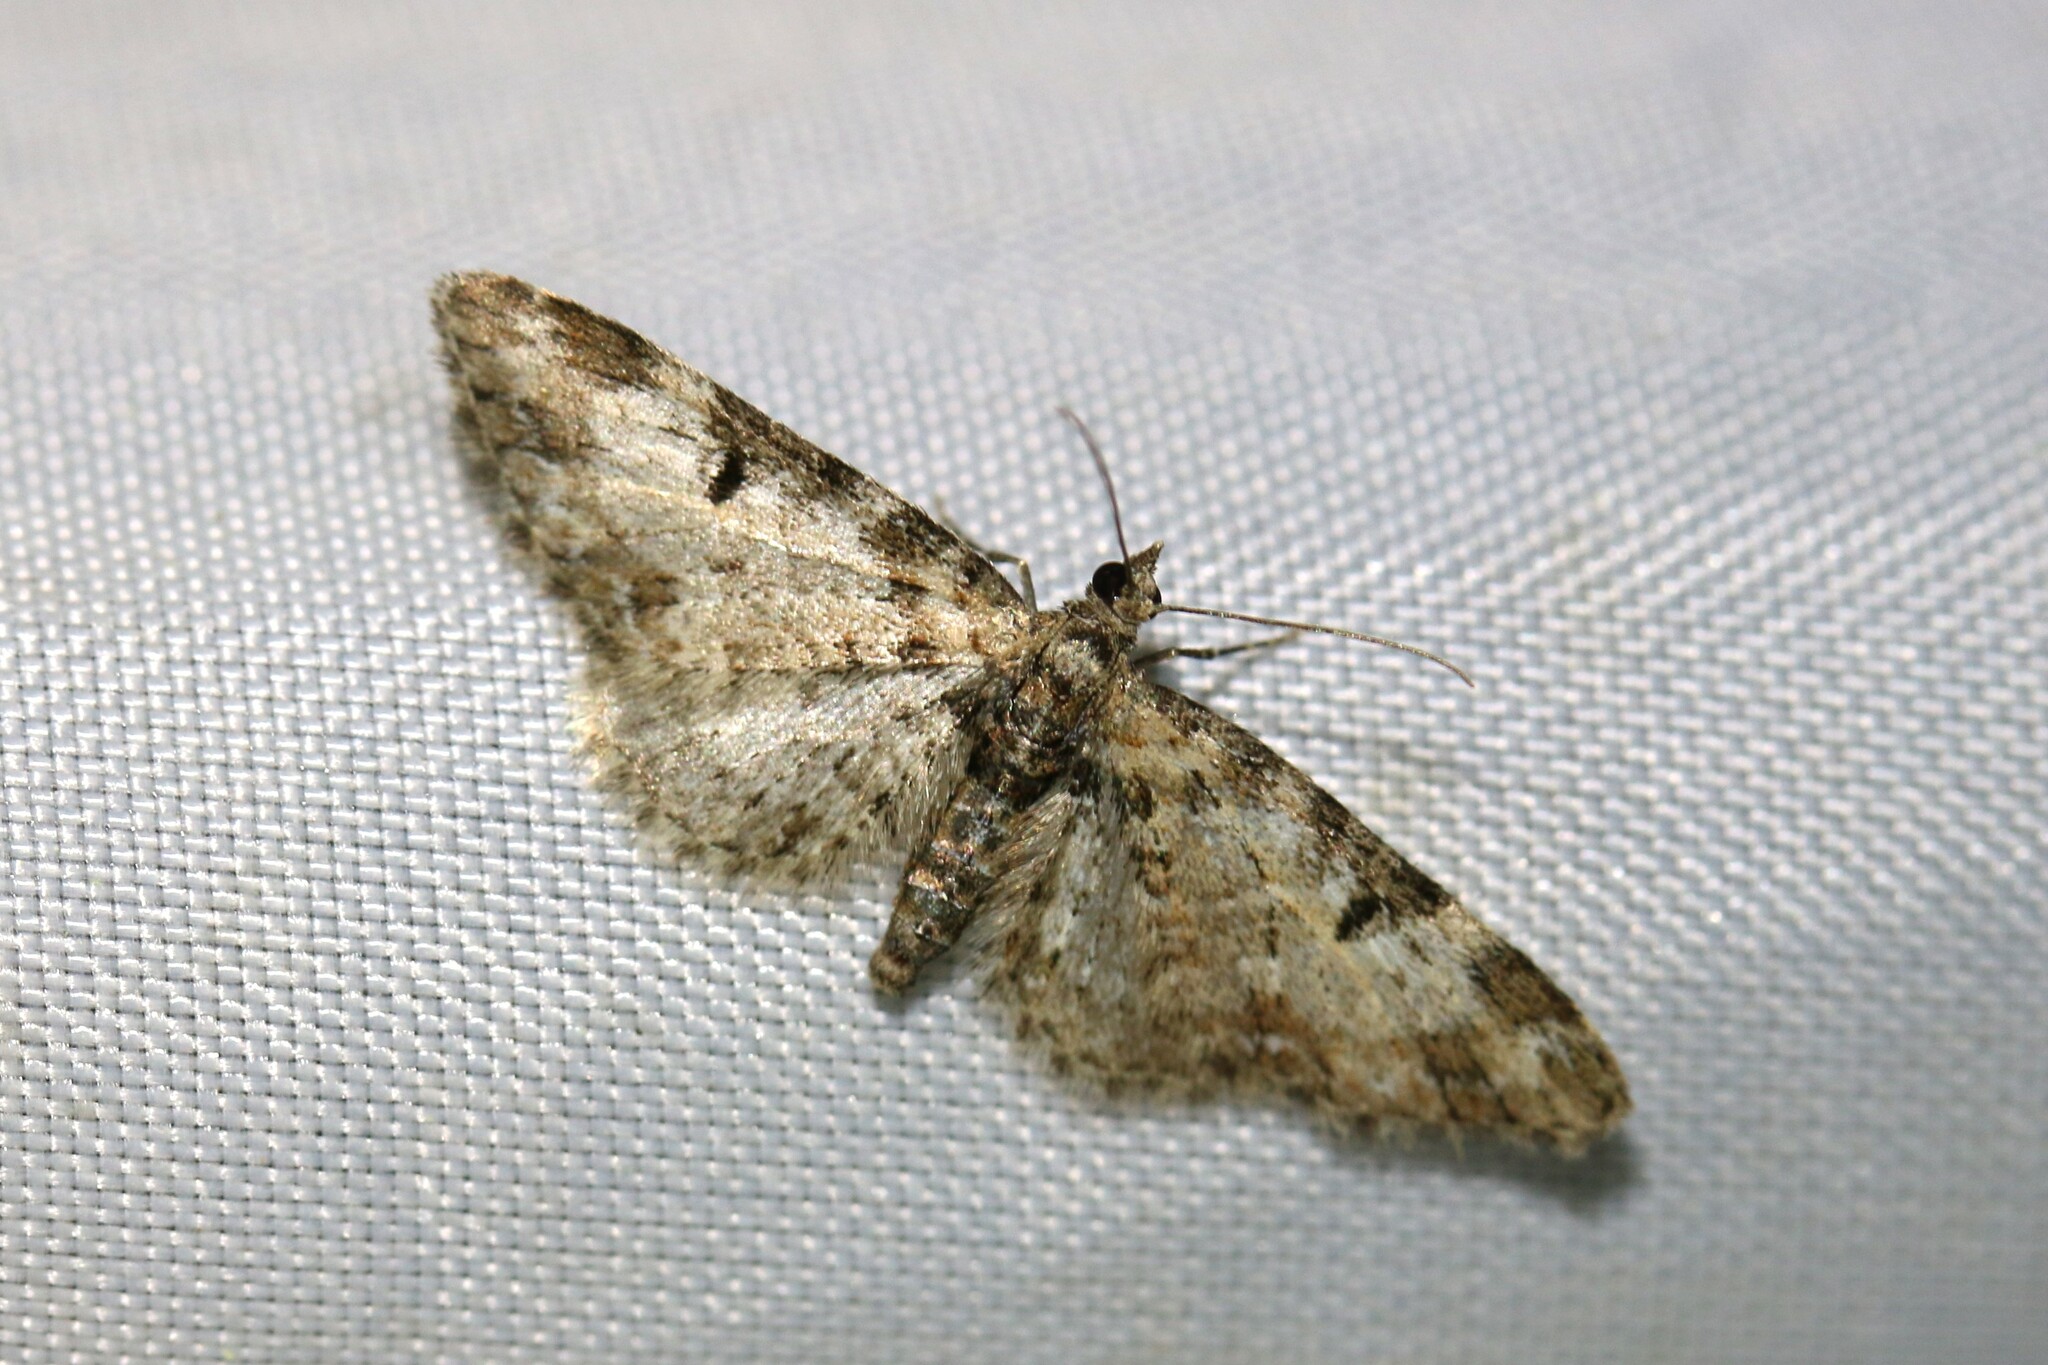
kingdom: Animalia
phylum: Arthropoda
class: Insecta
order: Lepidoptera
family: Geometridae
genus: Eupithecia
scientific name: Eupithecia irriguata
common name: Marbled pug
